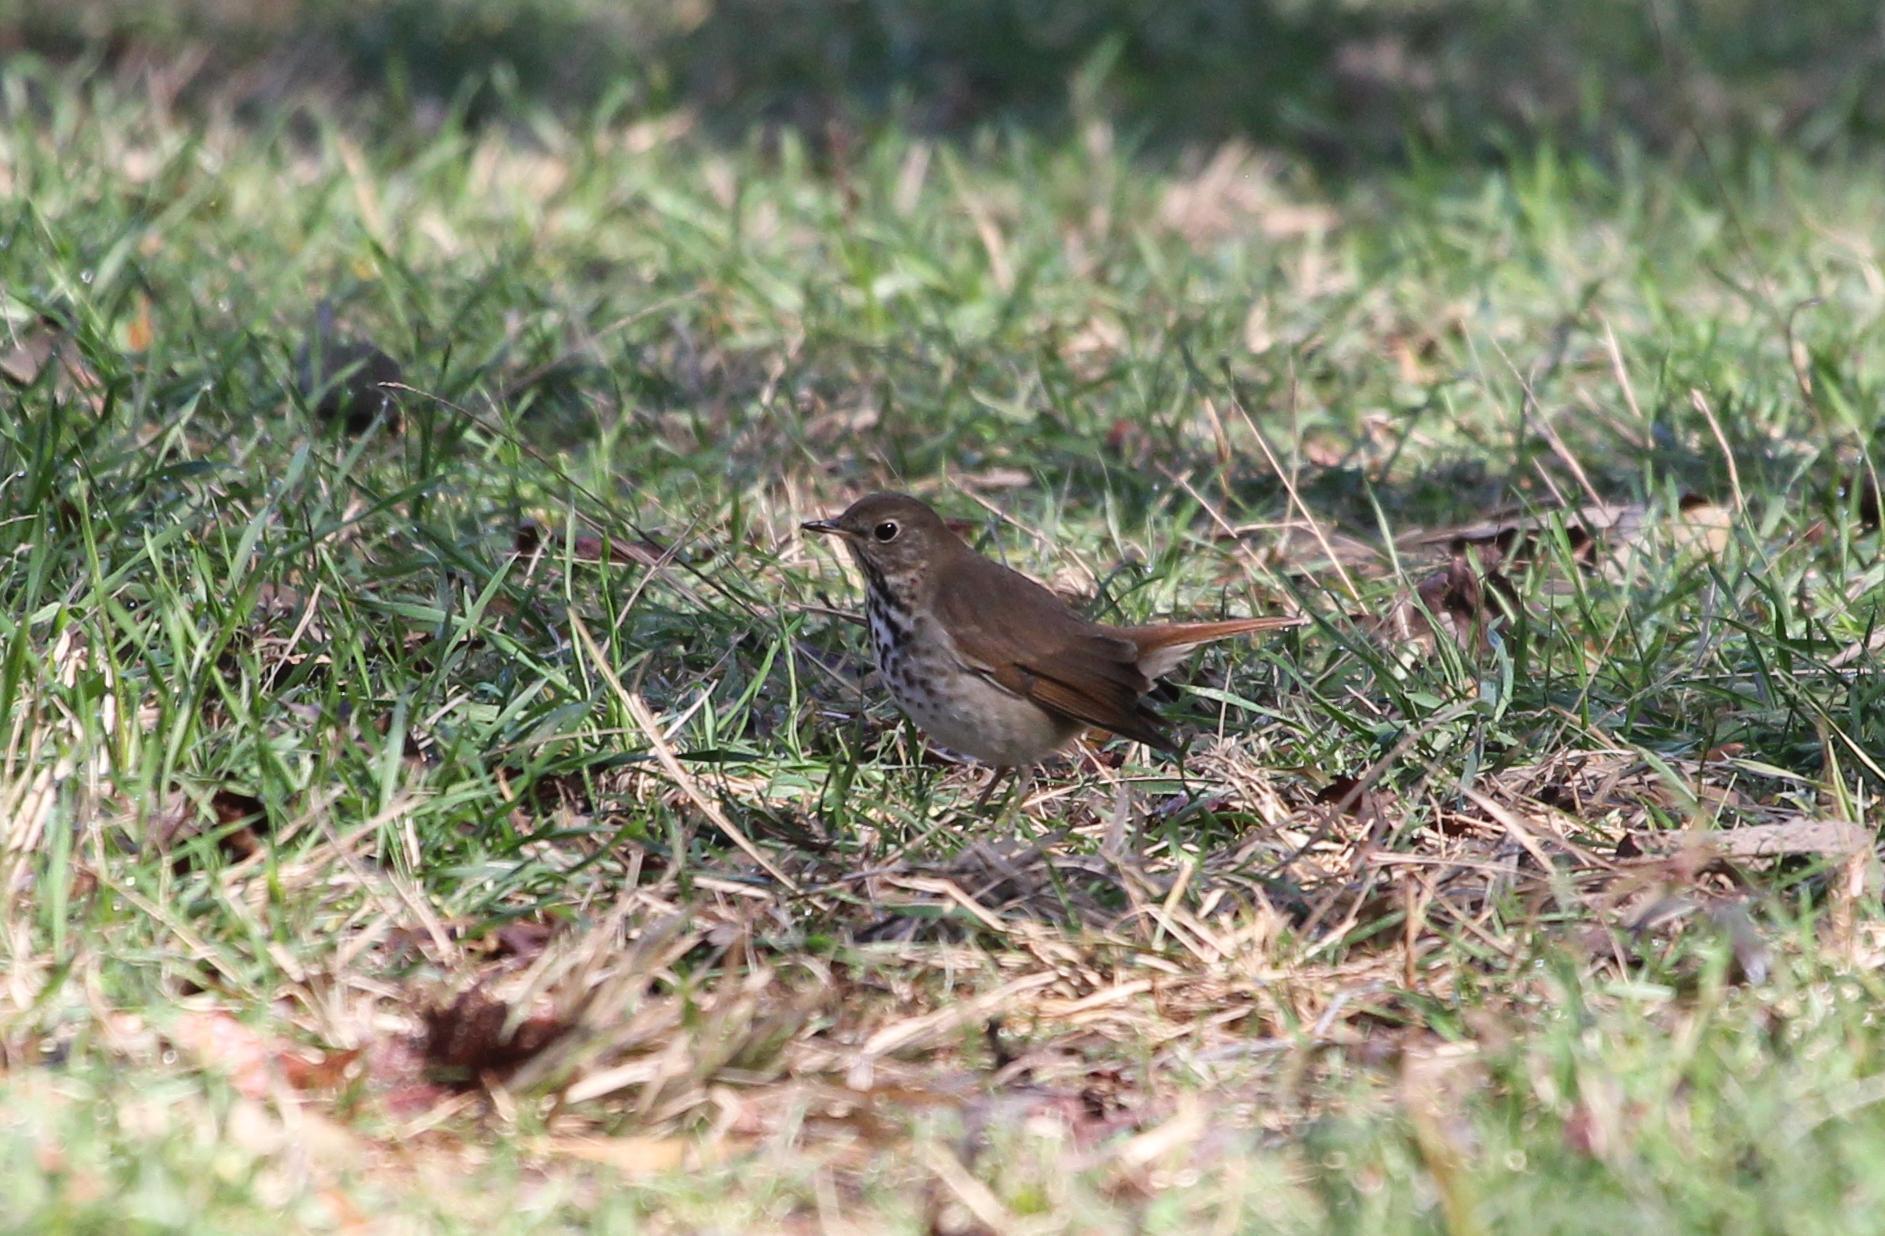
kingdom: Animalia
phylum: Chordata
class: Aves
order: Passeriformes
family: Turdidae
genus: Catharus
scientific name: Catharus guttatus
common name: Hermit thrush
